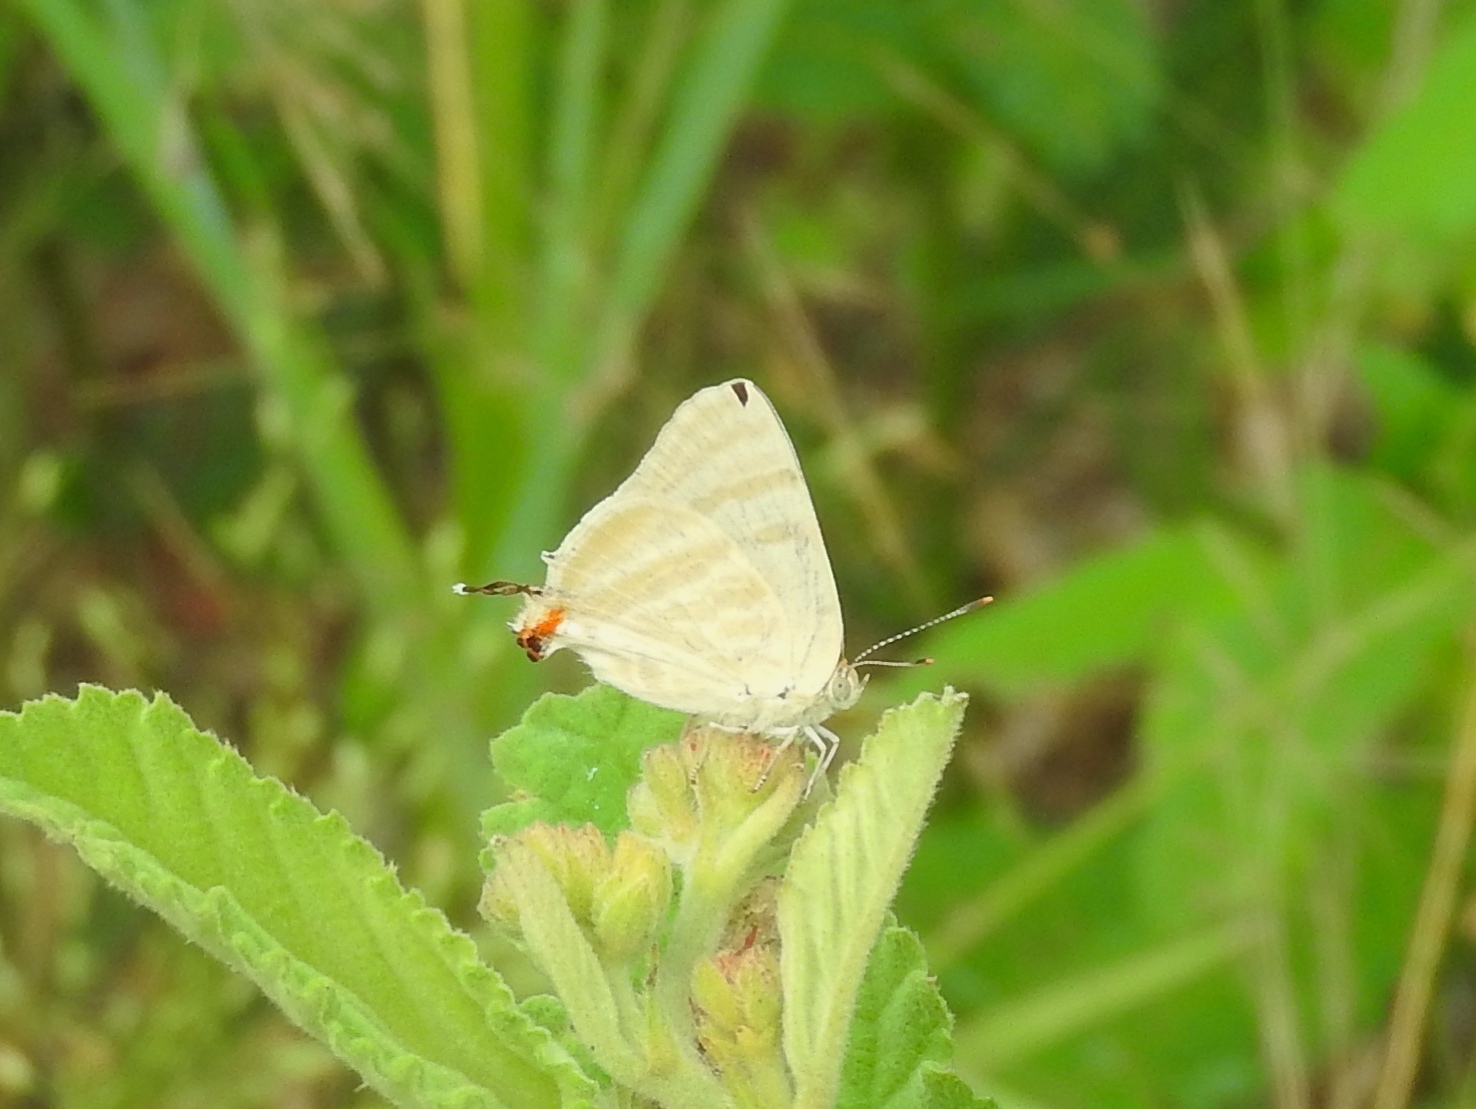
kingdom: Animalia
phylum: Arthropoda
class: Insecta
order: Lepidoptera
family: Lycaenidae
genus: Dolymorpha
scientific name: Dolymorpha jada
